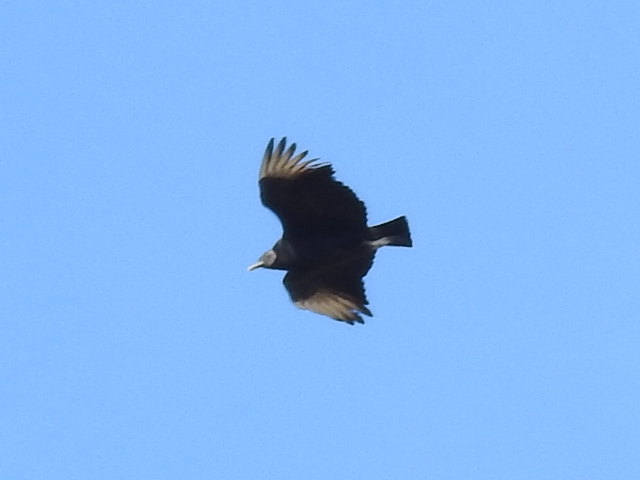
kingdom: Animalia
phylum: Chordata
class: Aves
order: Accipitriformes
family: Cathartidae
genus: Coragyps
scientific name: Coragyps atratus
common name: Black vulture
